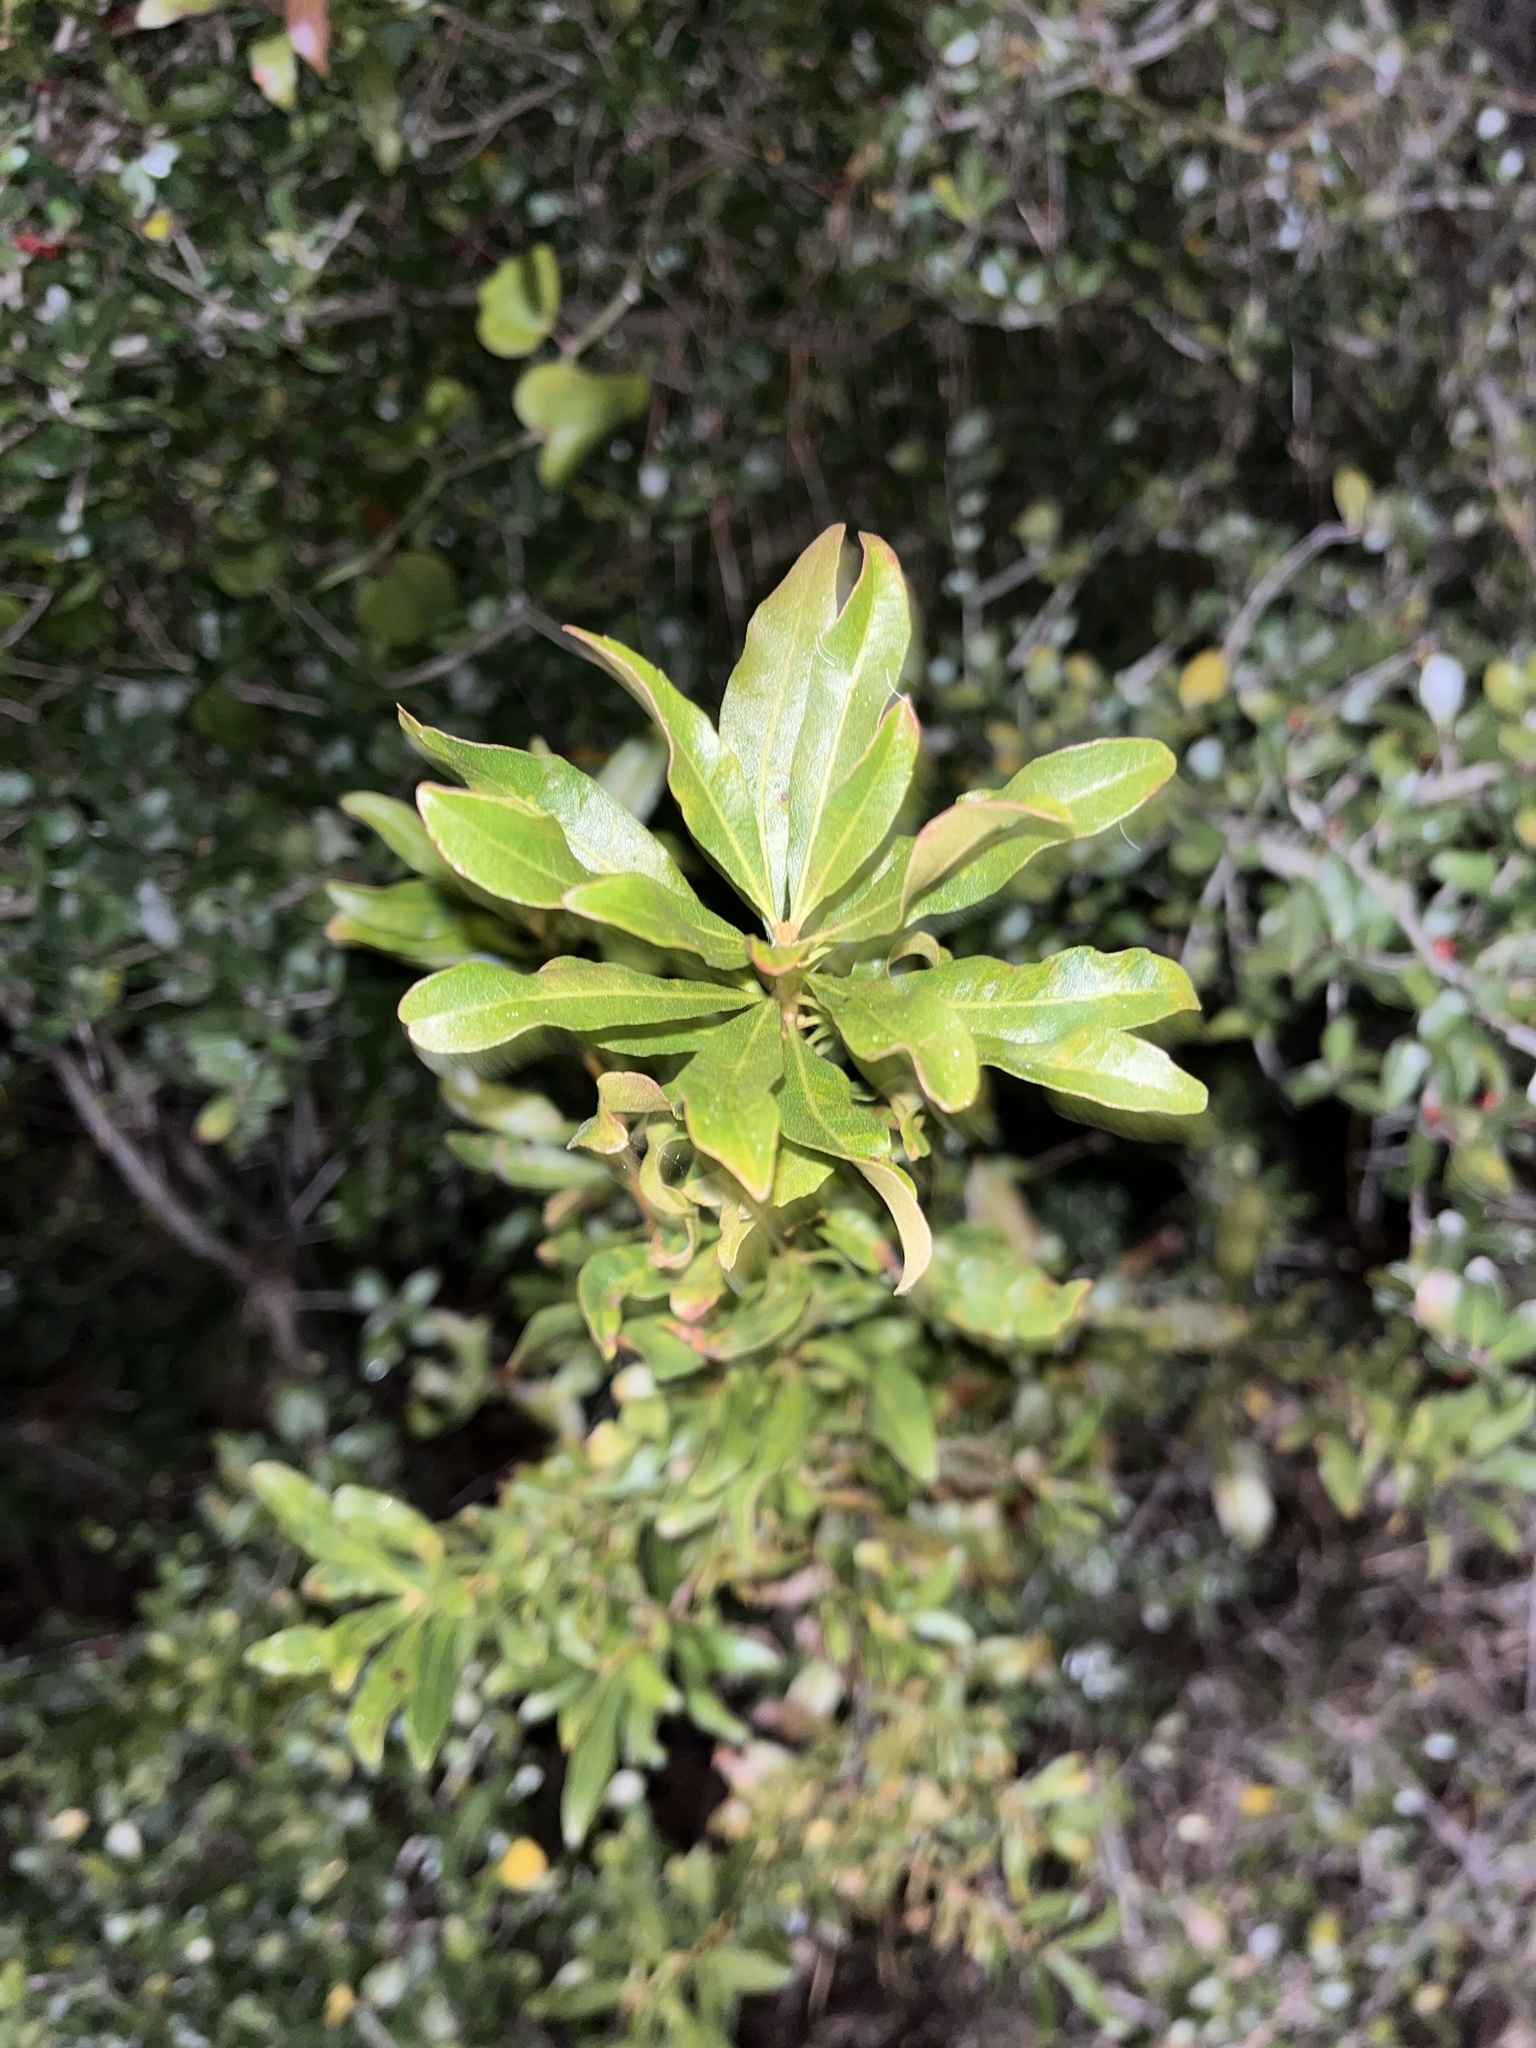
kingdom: Plantae
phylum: Tracheophyta
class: Magnoliopsida
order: Fagales
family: Myricaceae
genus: Morella
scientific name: Morella cerifera
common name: Wax myrtle
